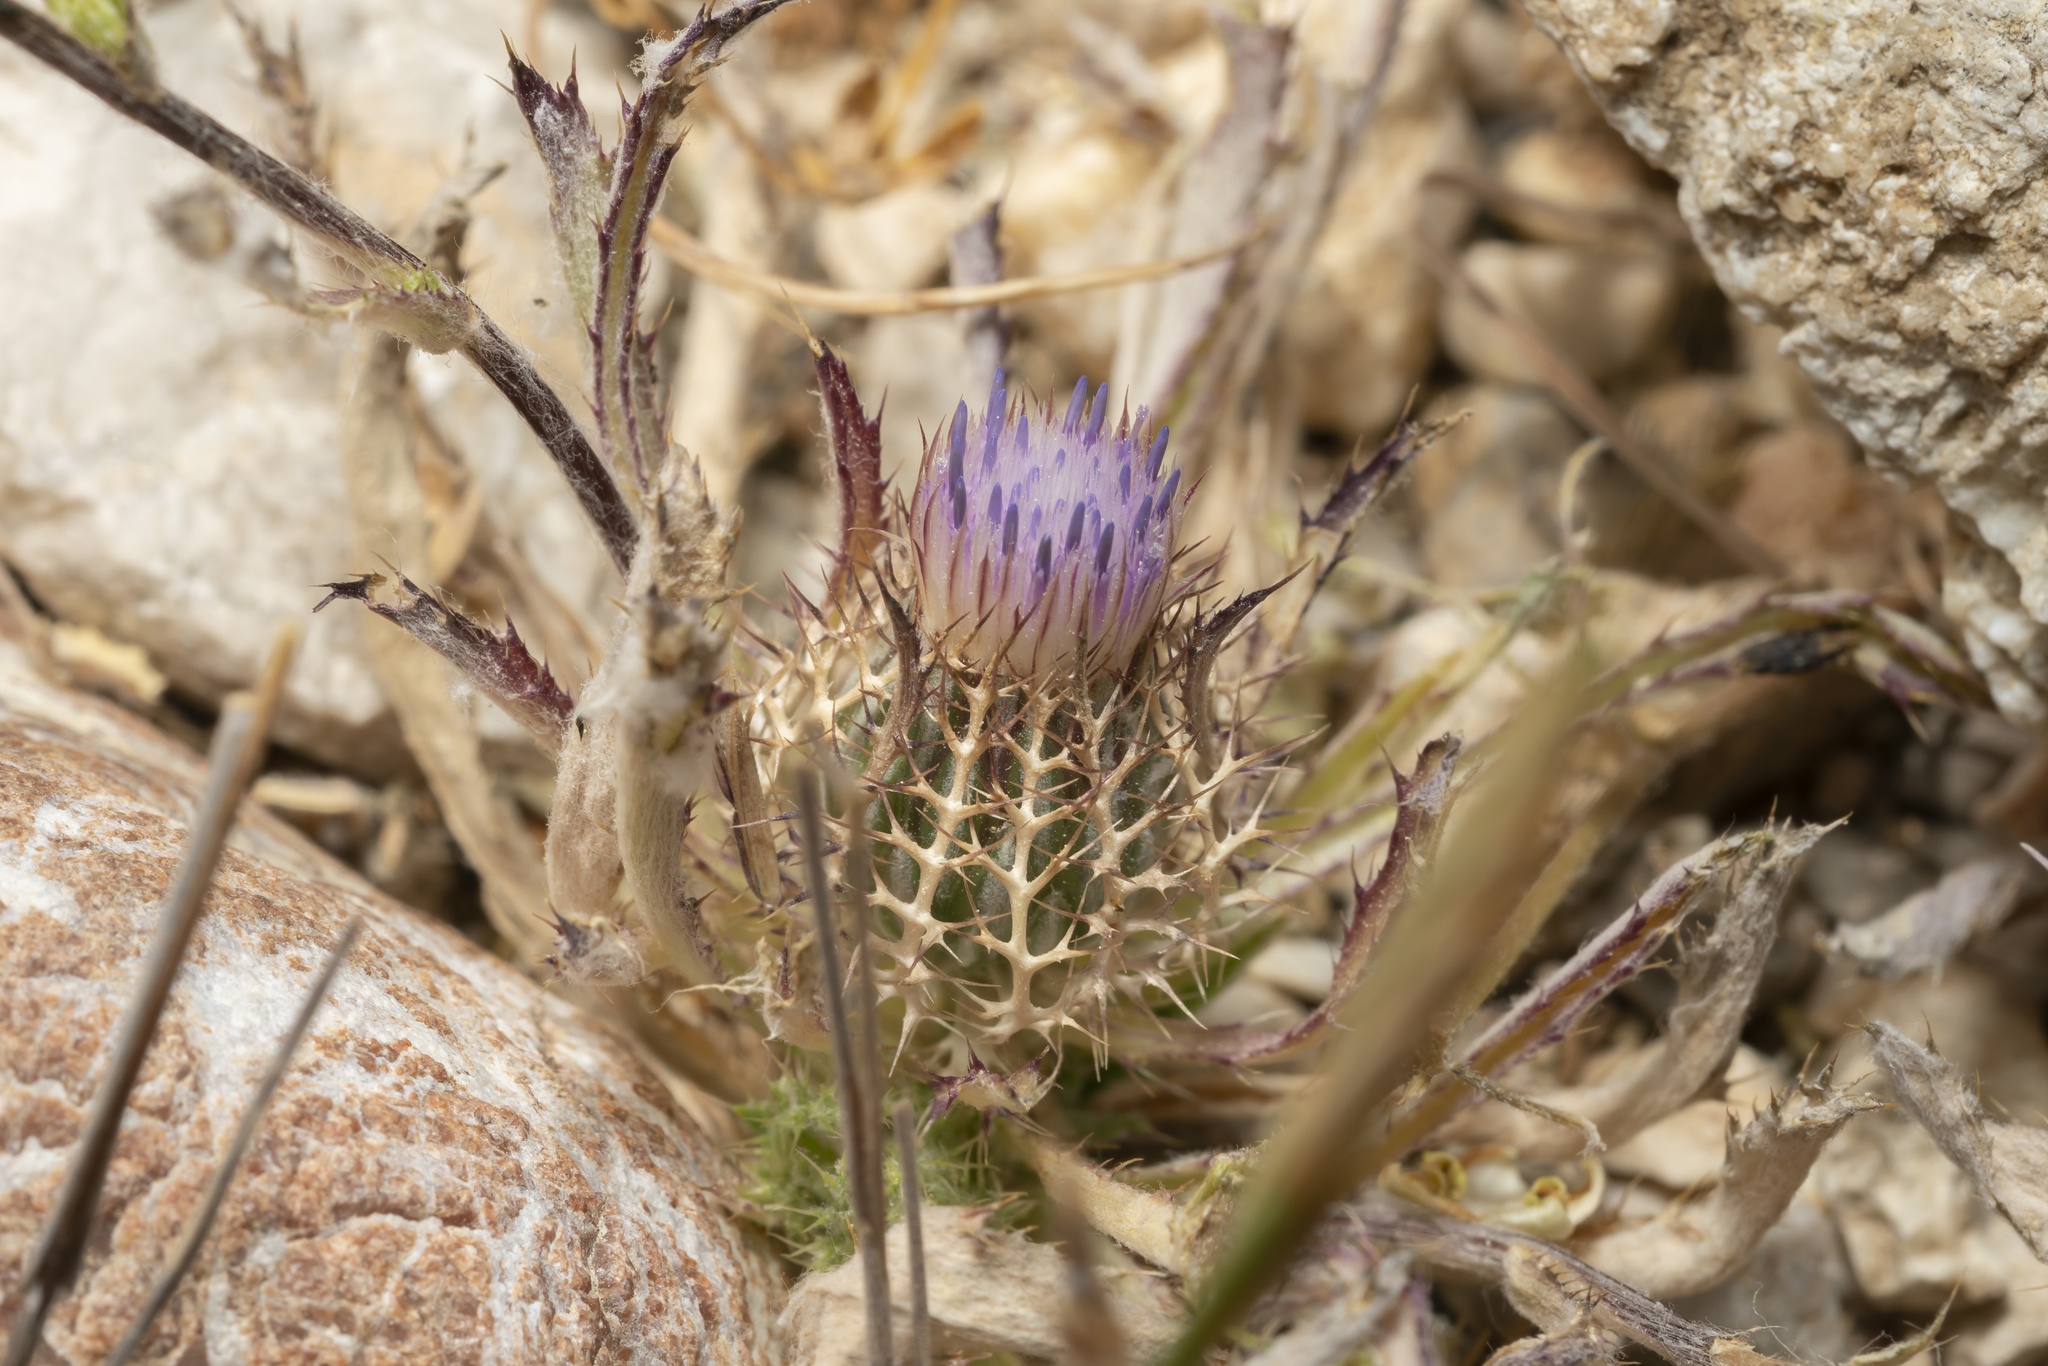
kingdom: Plantae
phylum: Tracheophyta
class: Magnoliopsida
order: Asterales
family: Asteraceae
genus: Atractylis
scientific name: Atractylis cancellata
